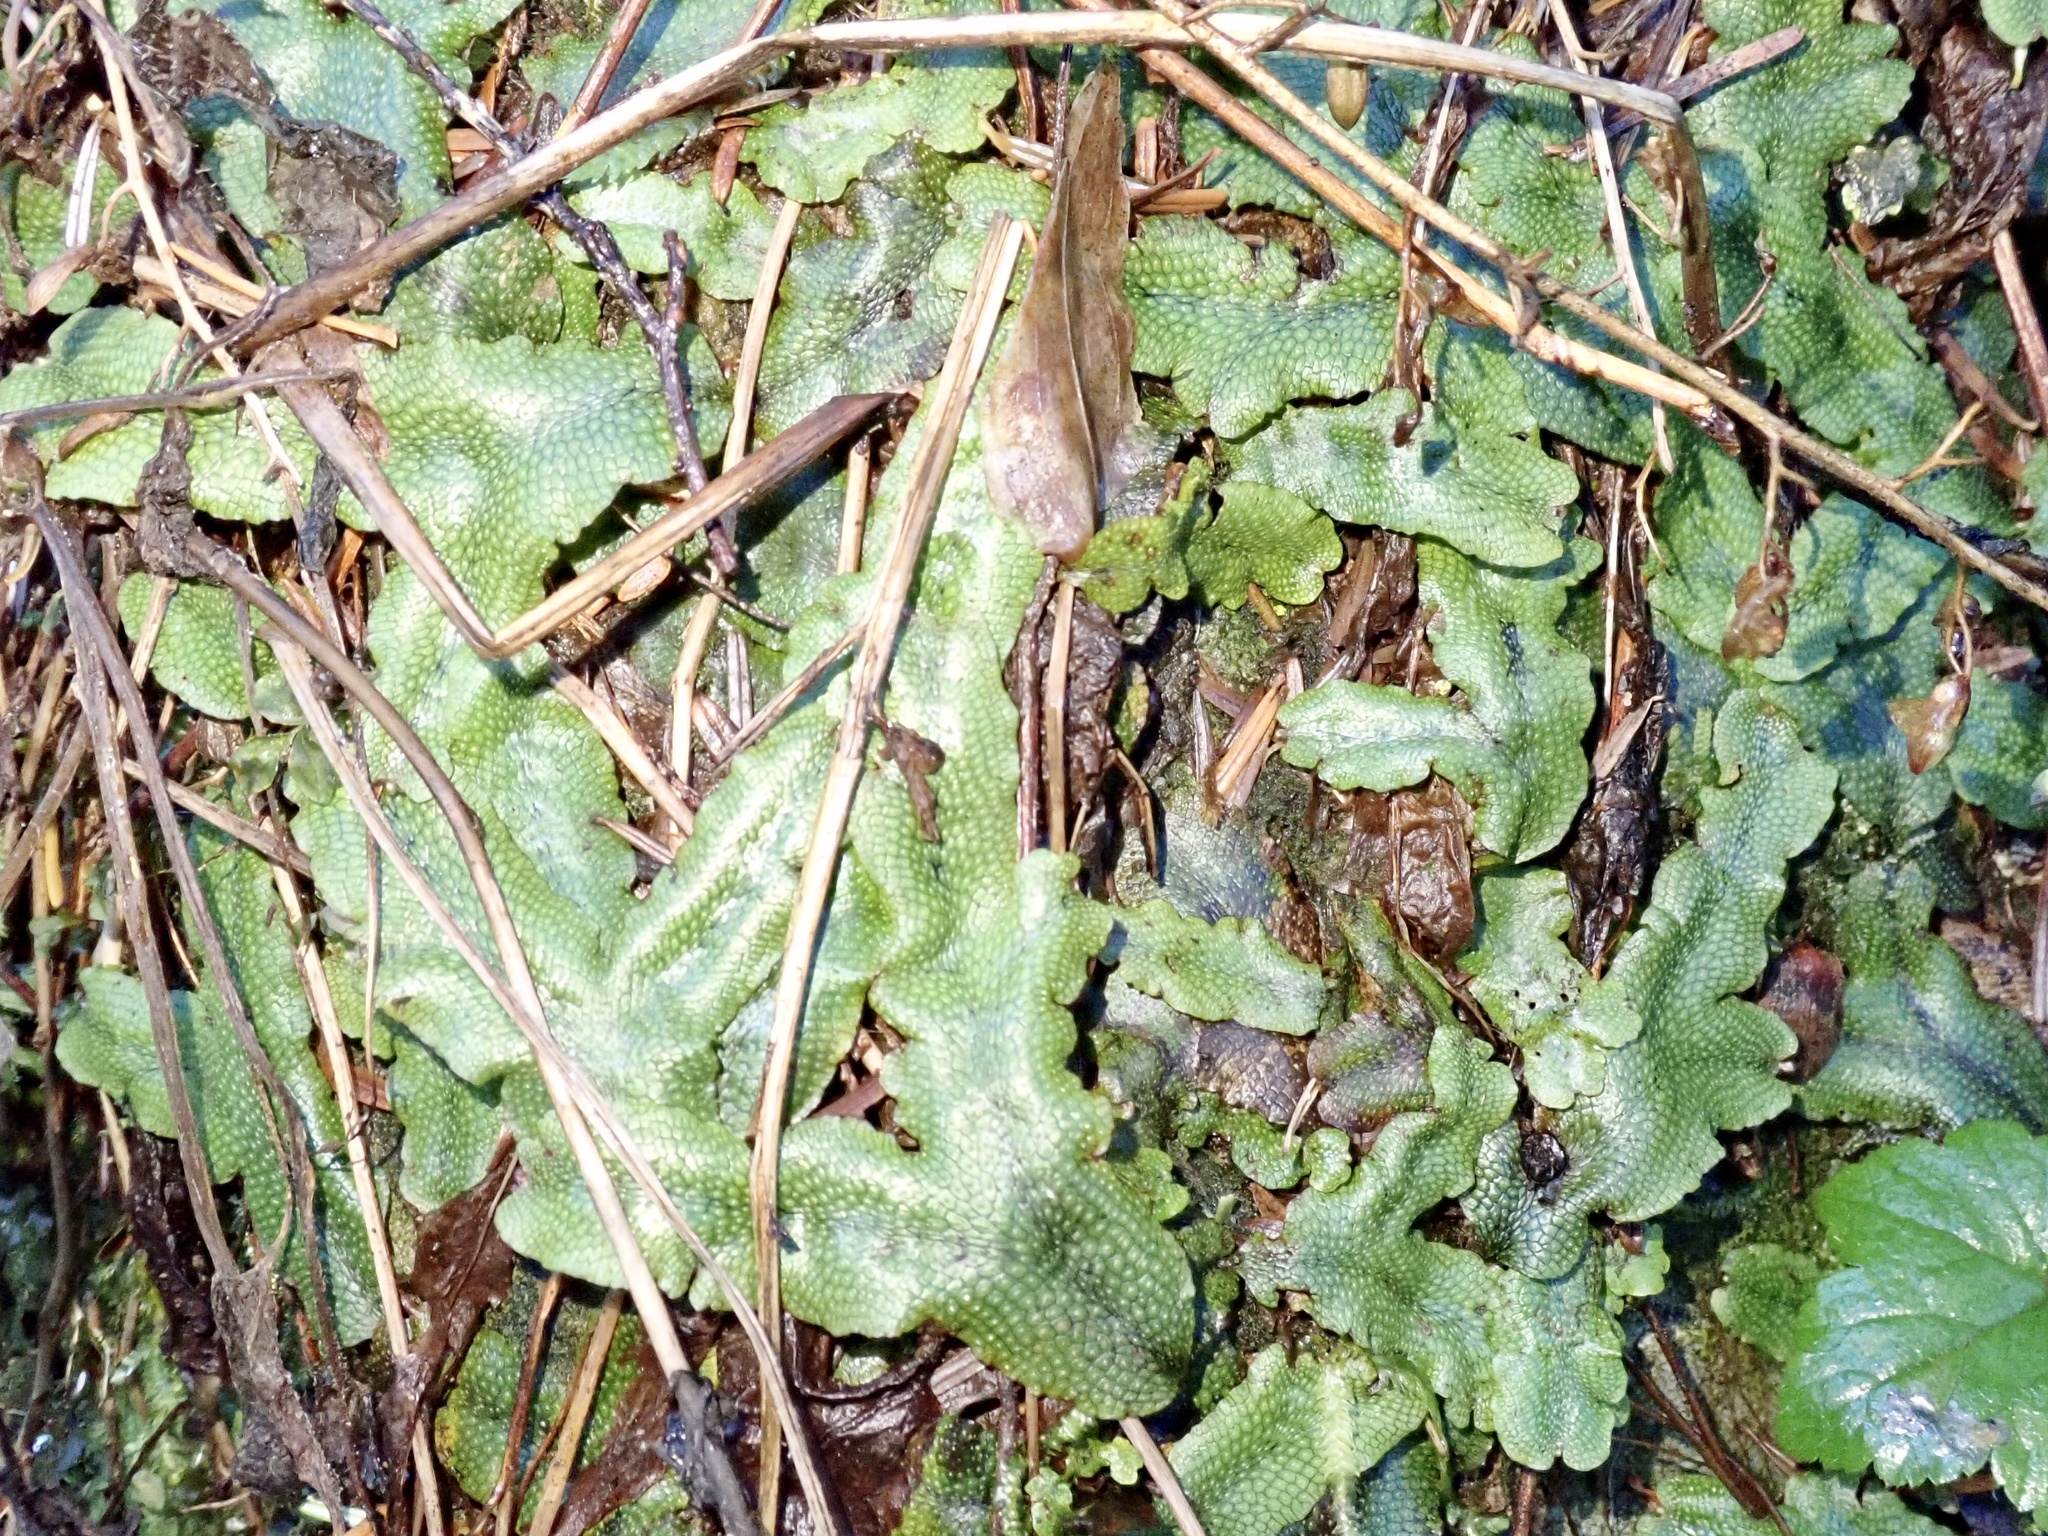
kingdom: Plantae
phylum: Marchantiophyta
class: Marchantiopsida
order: Marchantiales
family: Conocephalaceae
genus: Conocephalum
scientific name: Conocephalum conicum
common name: Great scented liverwort
